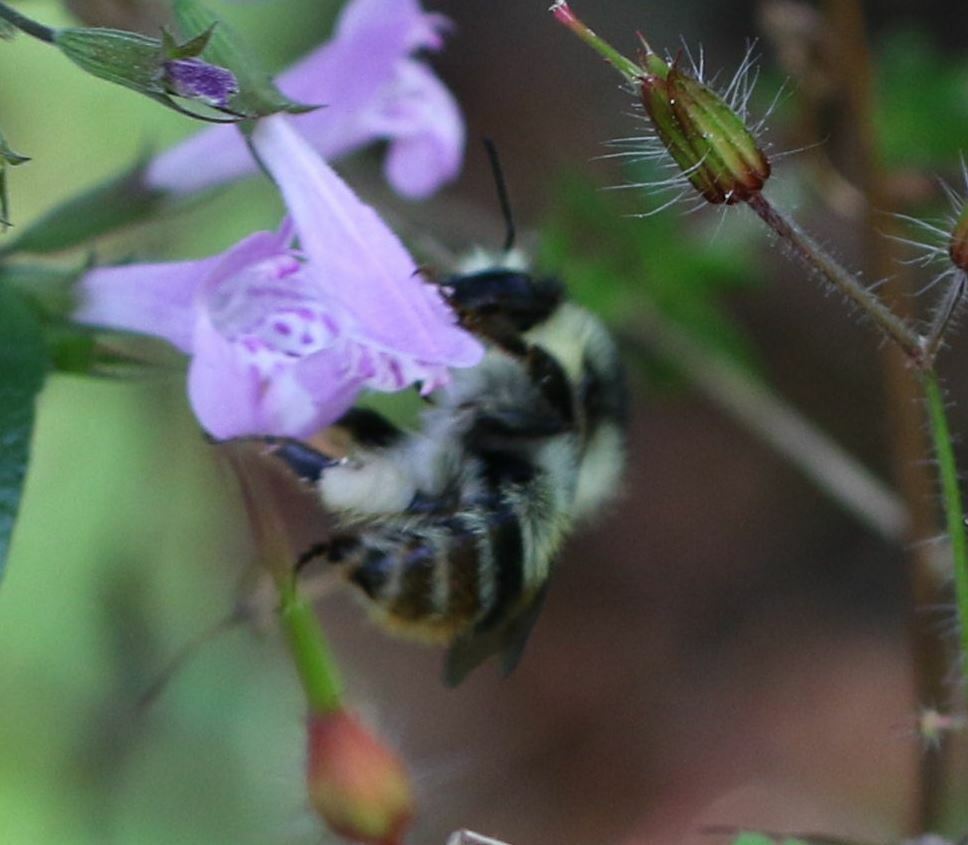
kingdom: Animalia
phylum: Arthropoda
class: Insecta
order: Hymenoptera
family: Apidae
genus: Bombus
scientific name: Bombus sylvarum
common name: Shrill carder bee
